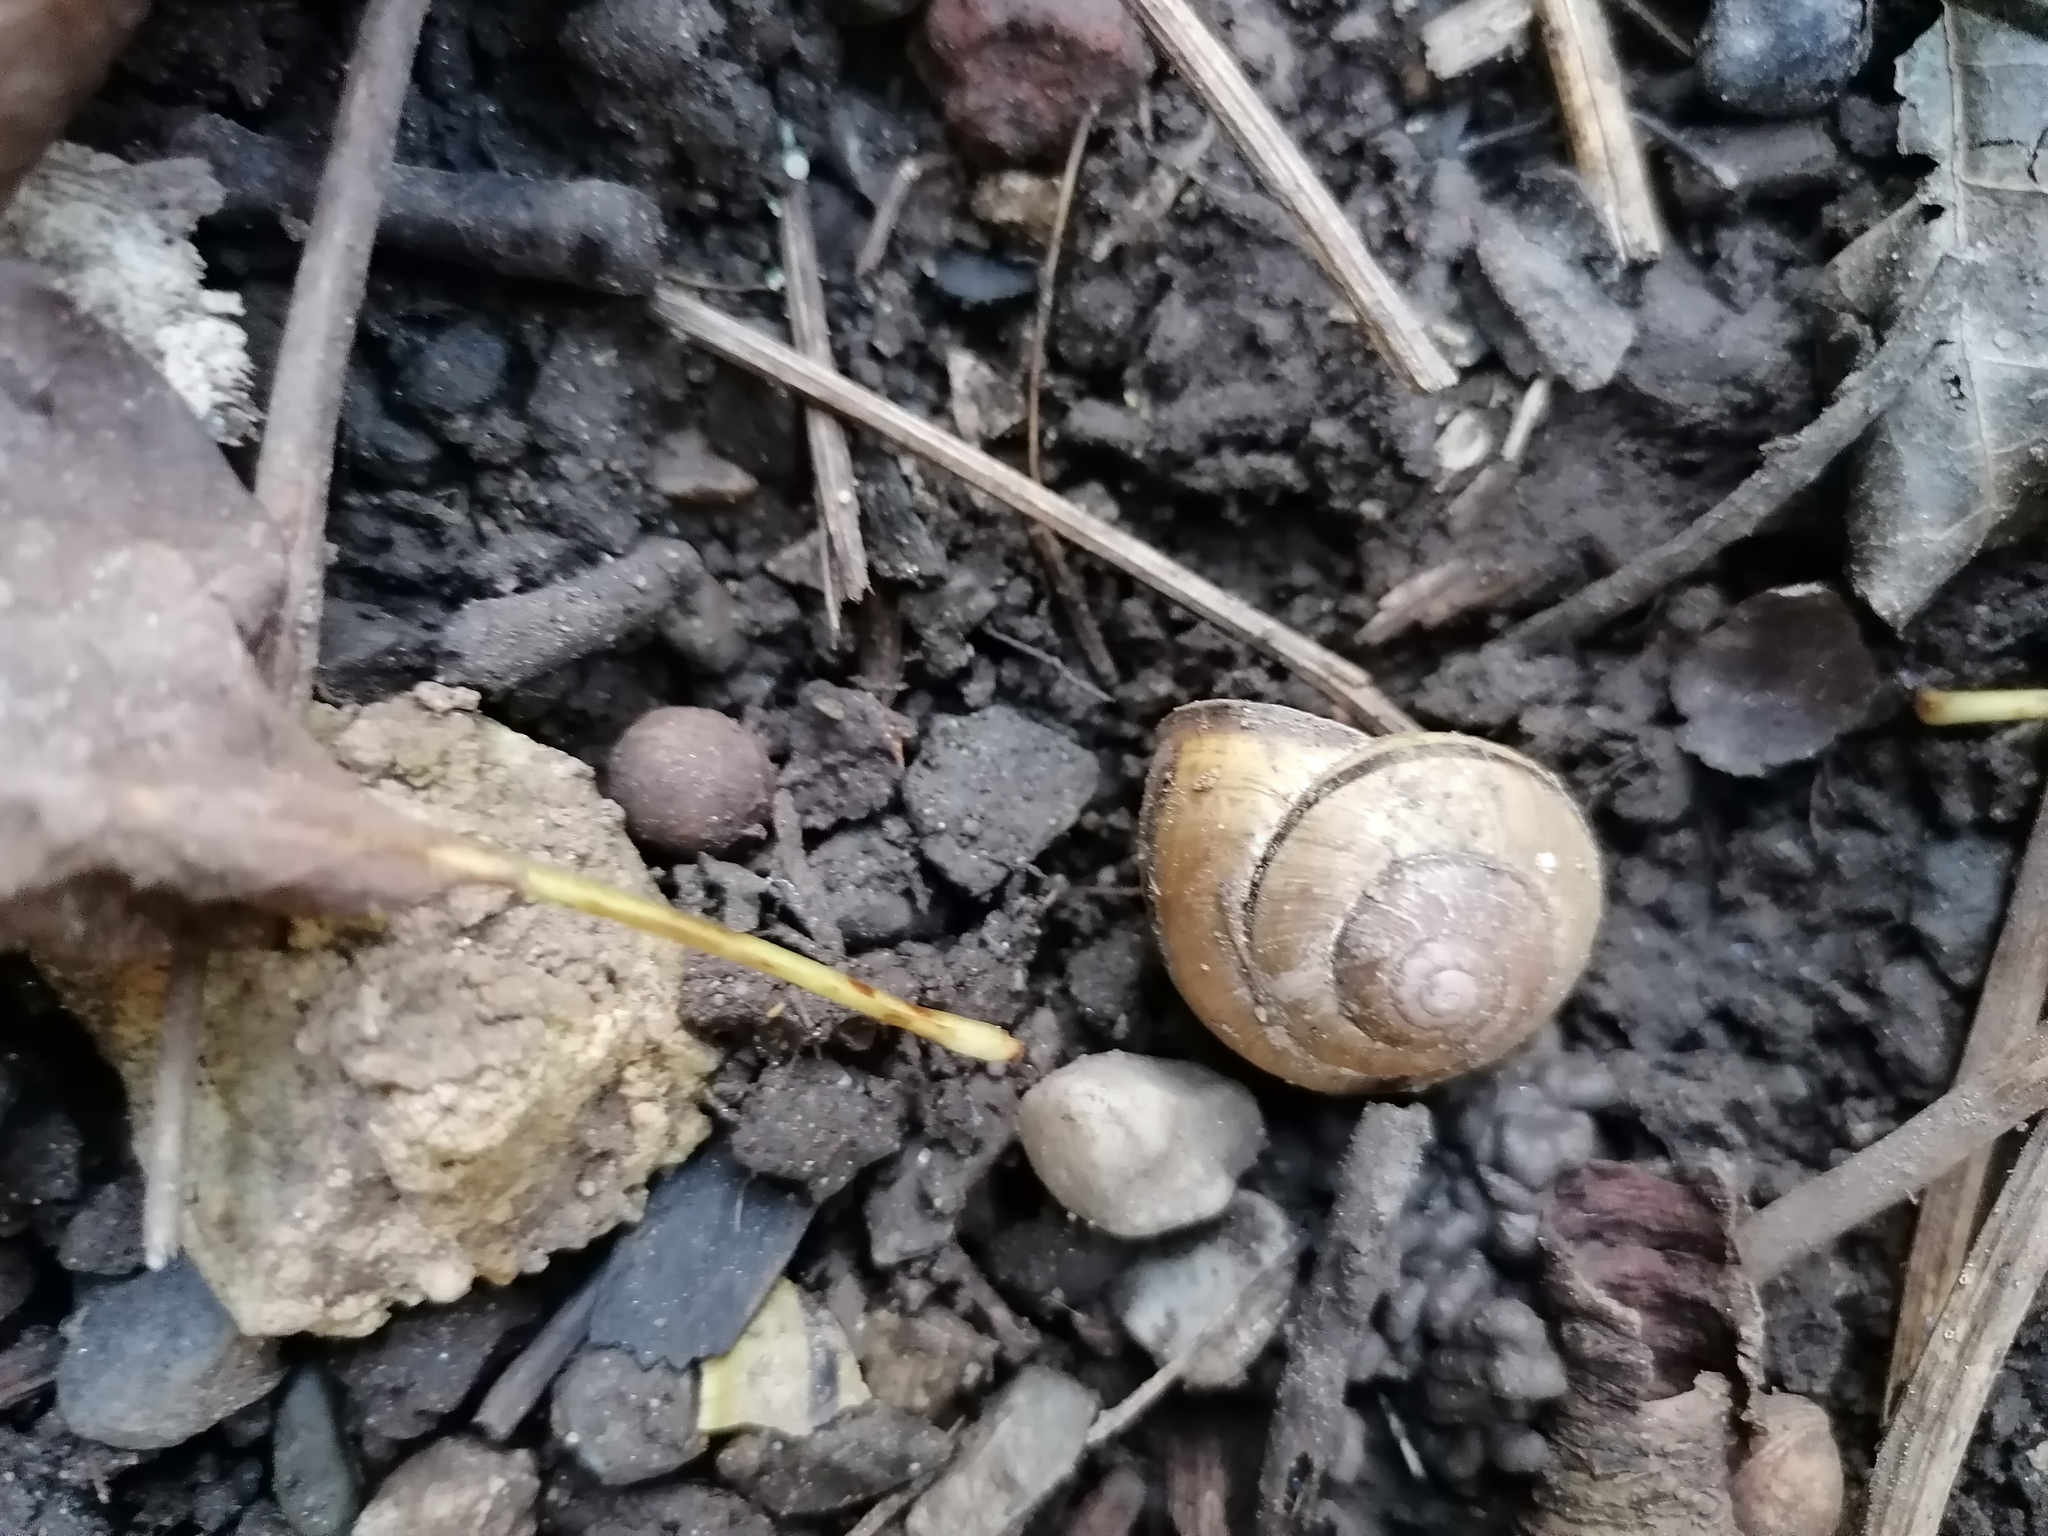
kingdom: Animalia
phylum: Mollusca
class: Gastropoda
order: Stylommatophora
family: Helicidae
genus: Cepaea
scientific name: Cepaea nemoralis
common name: Grovesnail
